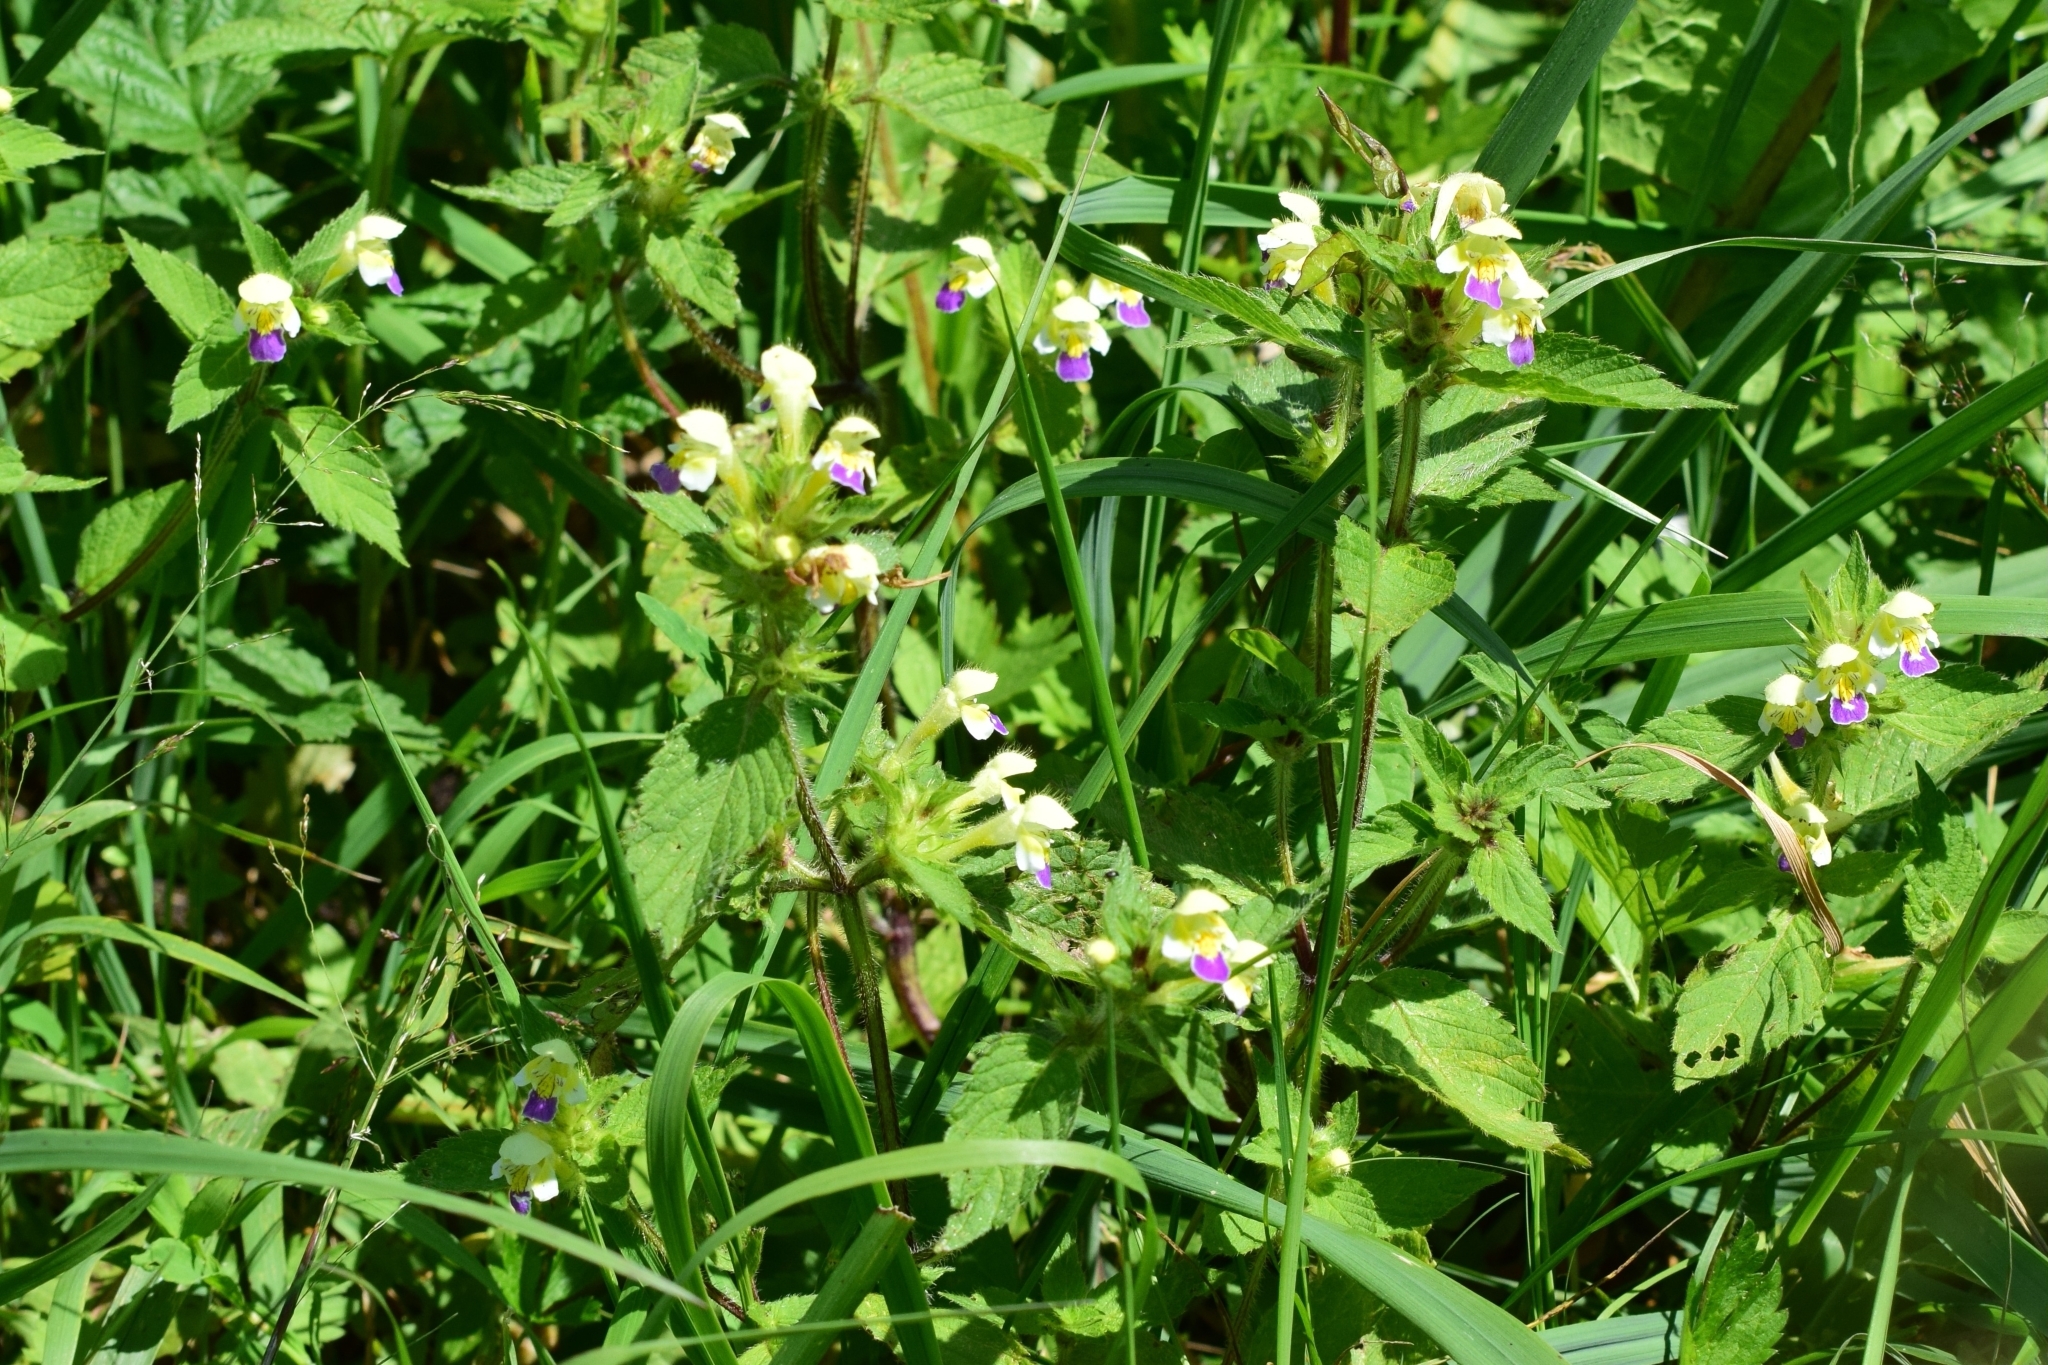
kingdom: Plantae
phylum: Tracheophyta
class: Magnoliopsida
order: Lamiales
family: Lamiaceae
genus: Galeopsis
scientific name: Galeopsis speciosa
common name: Large-flowered hemp-nettle
